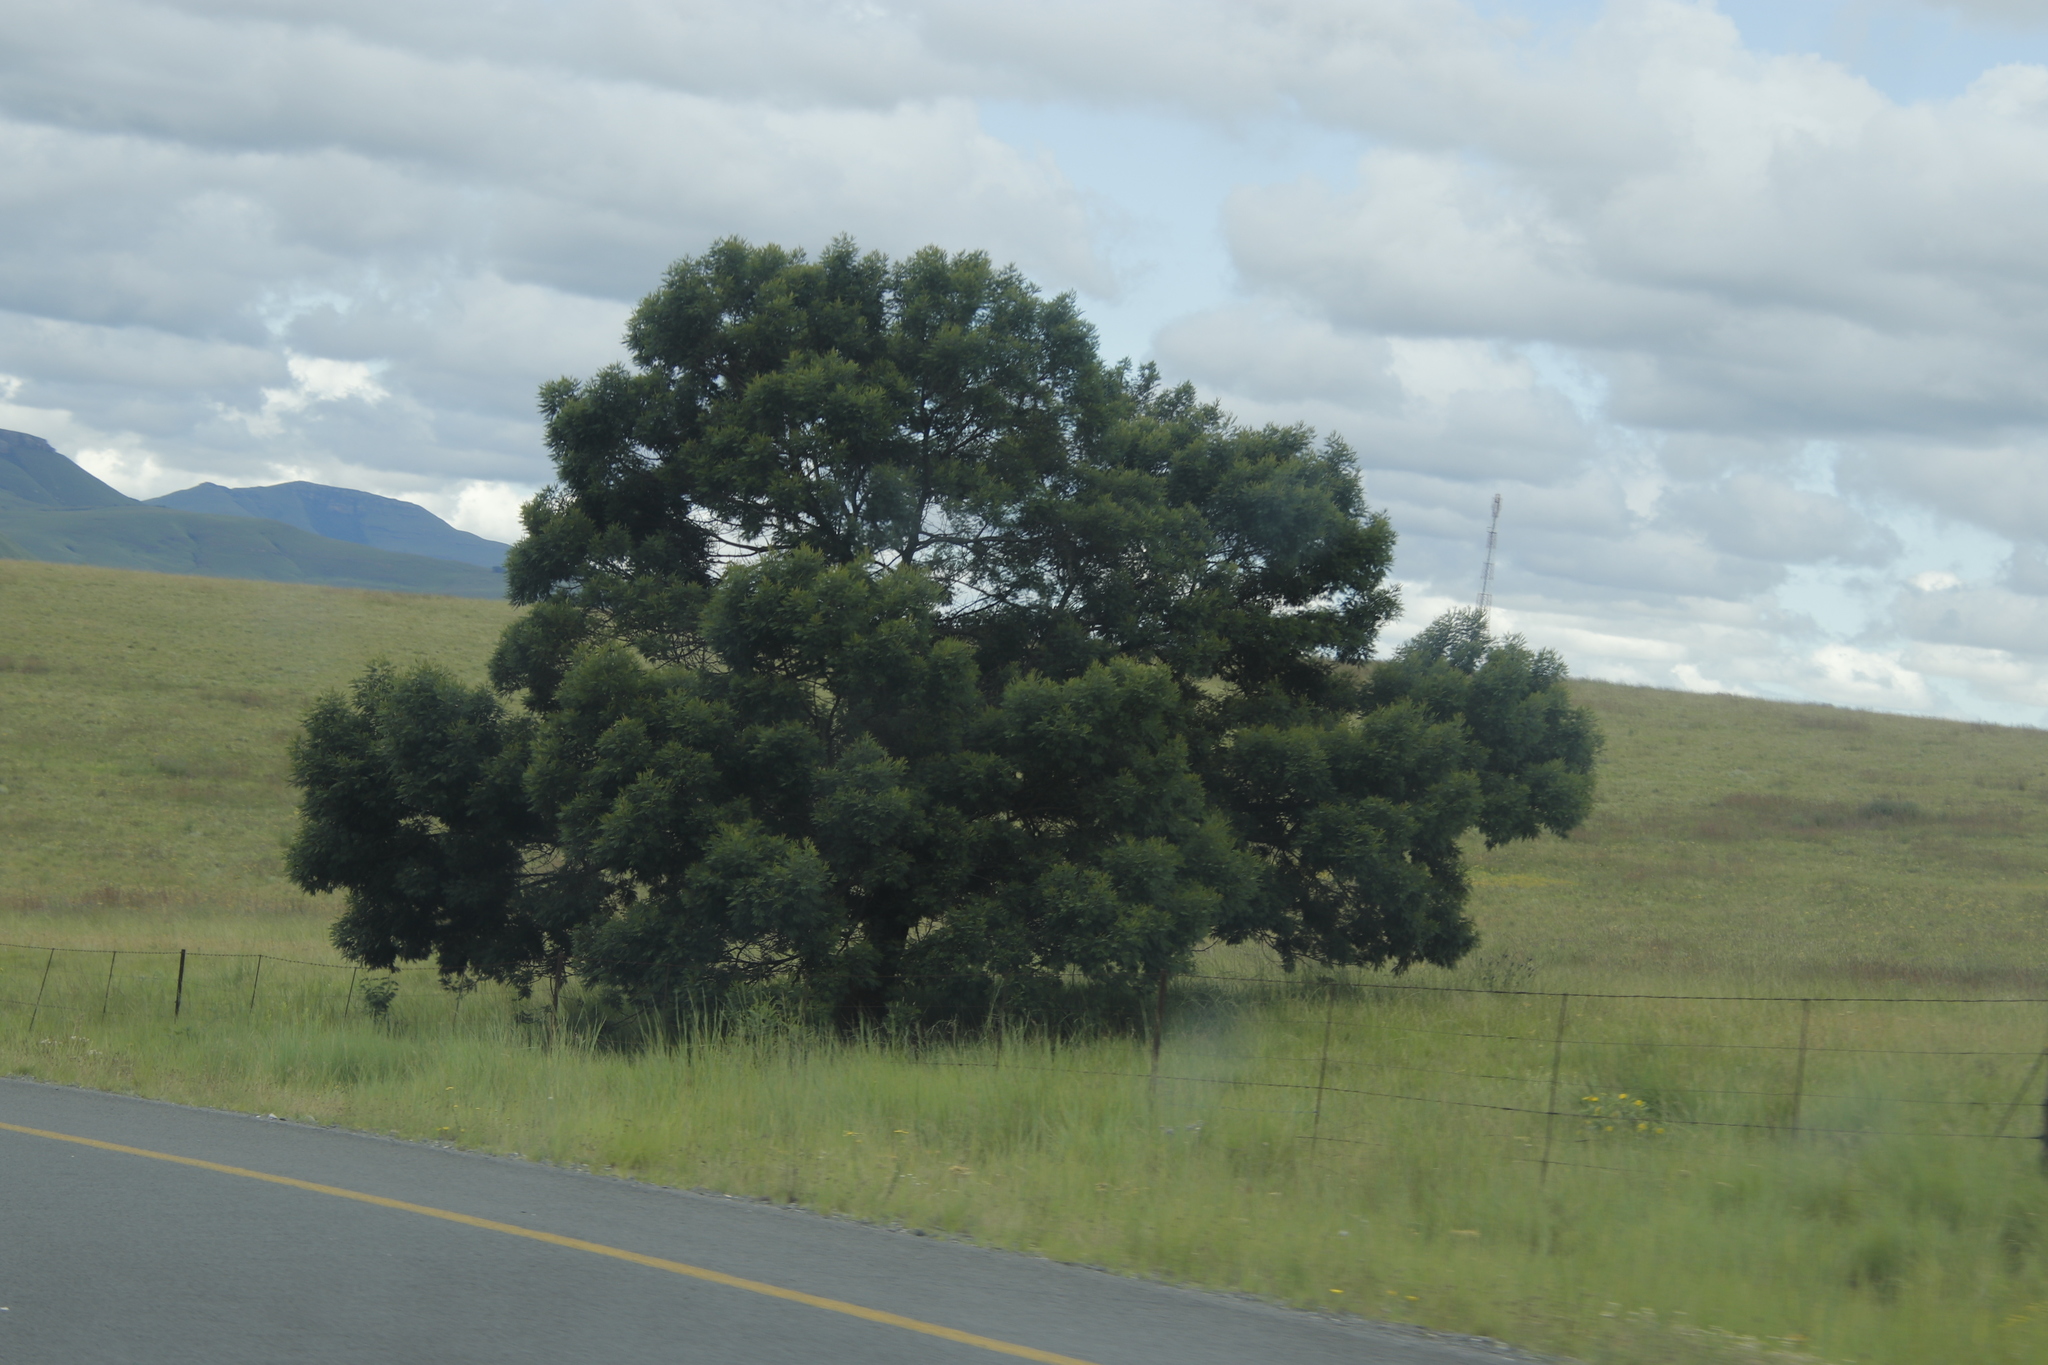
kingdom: Plantae
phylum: Tracheophyta
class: Magnoliopsida
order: Fabales
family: Fabaceae
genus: Acacia
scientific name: Acacia mearnsii
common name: Black wattle
